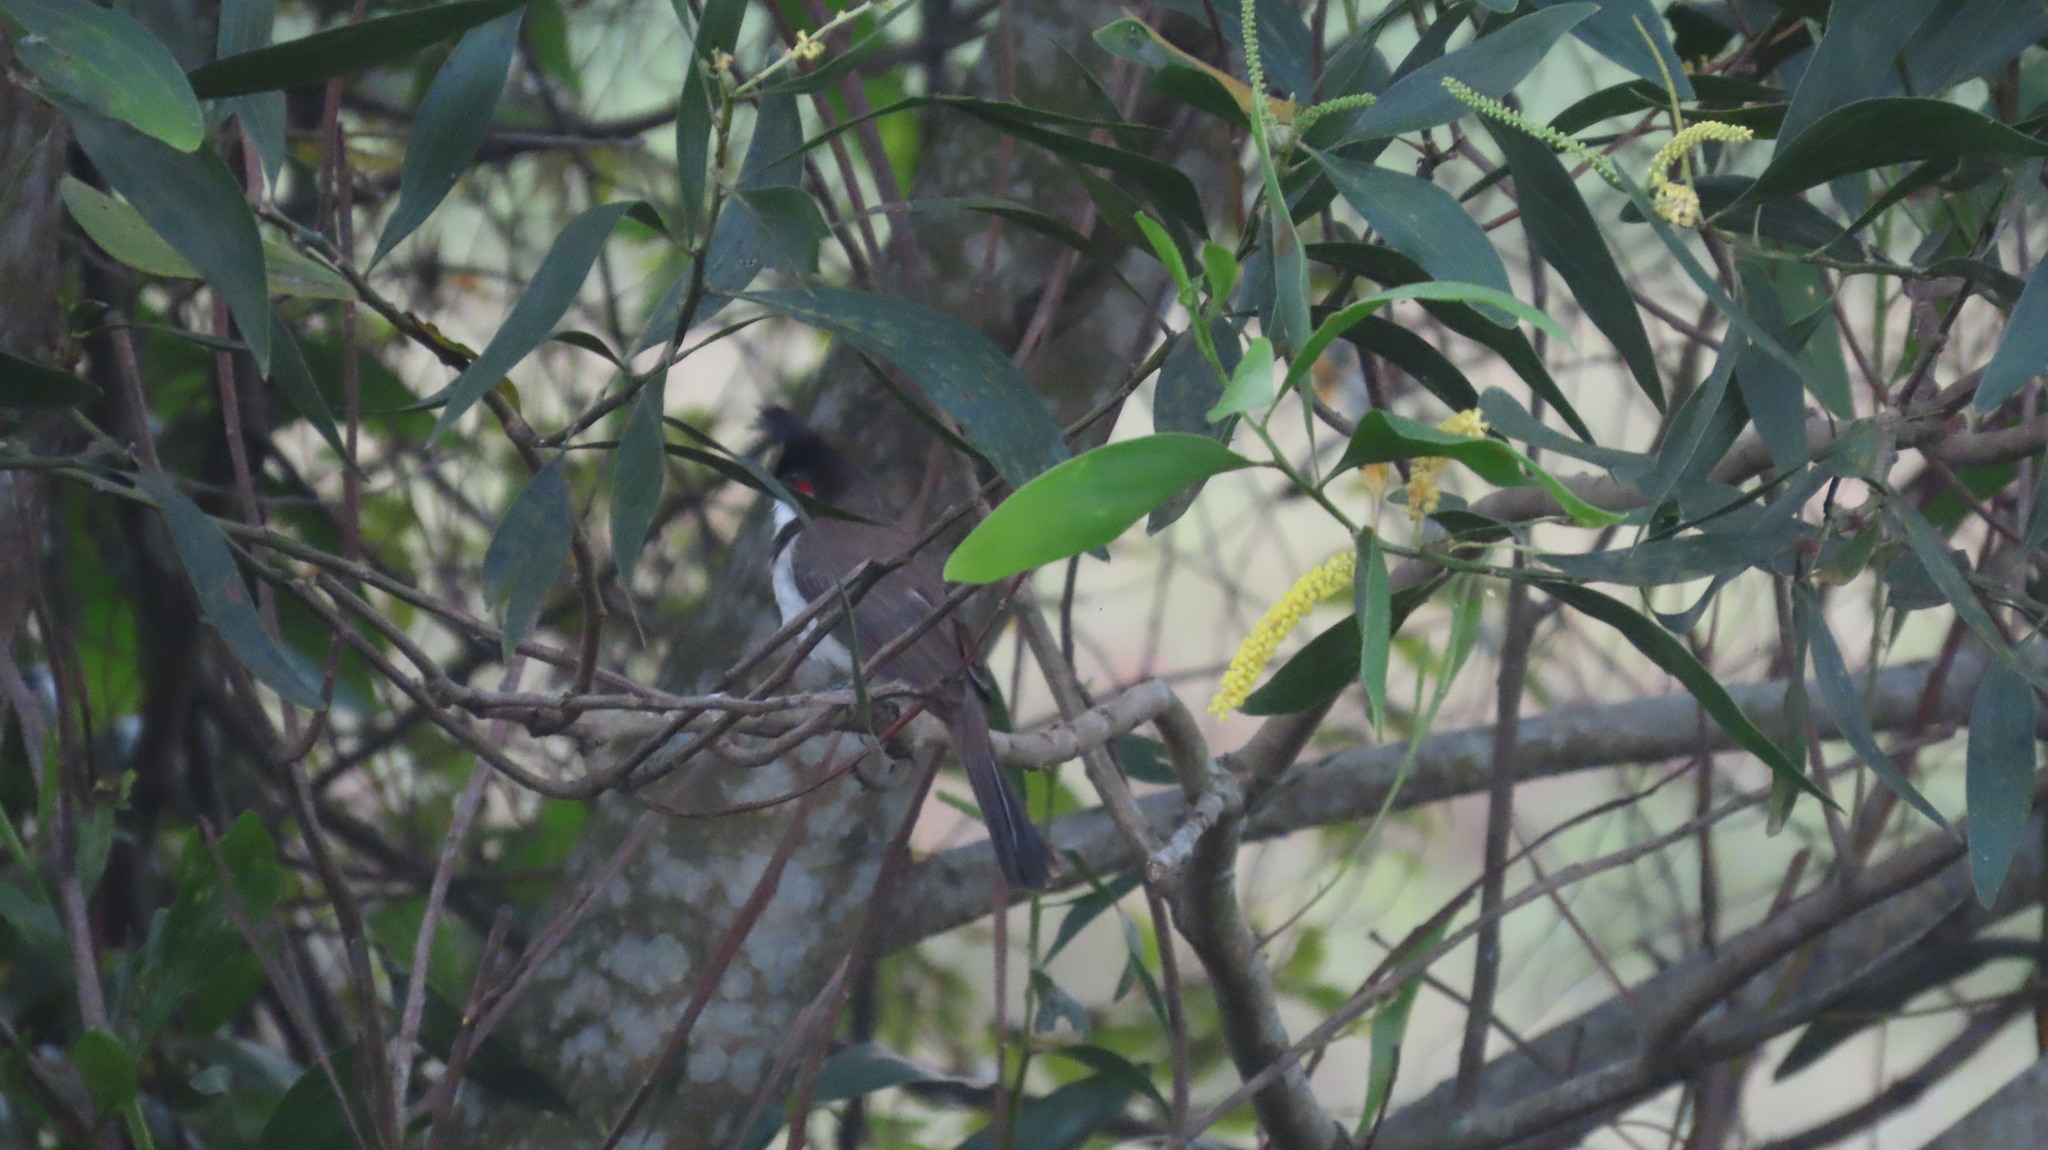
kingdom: Animalia
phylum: Chordata
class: Aves
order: Passeriformes
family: Pycnonotidae
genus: Pycnonotus
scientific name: Pycnonotus jocosus
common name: Red-whiskered bulbul
